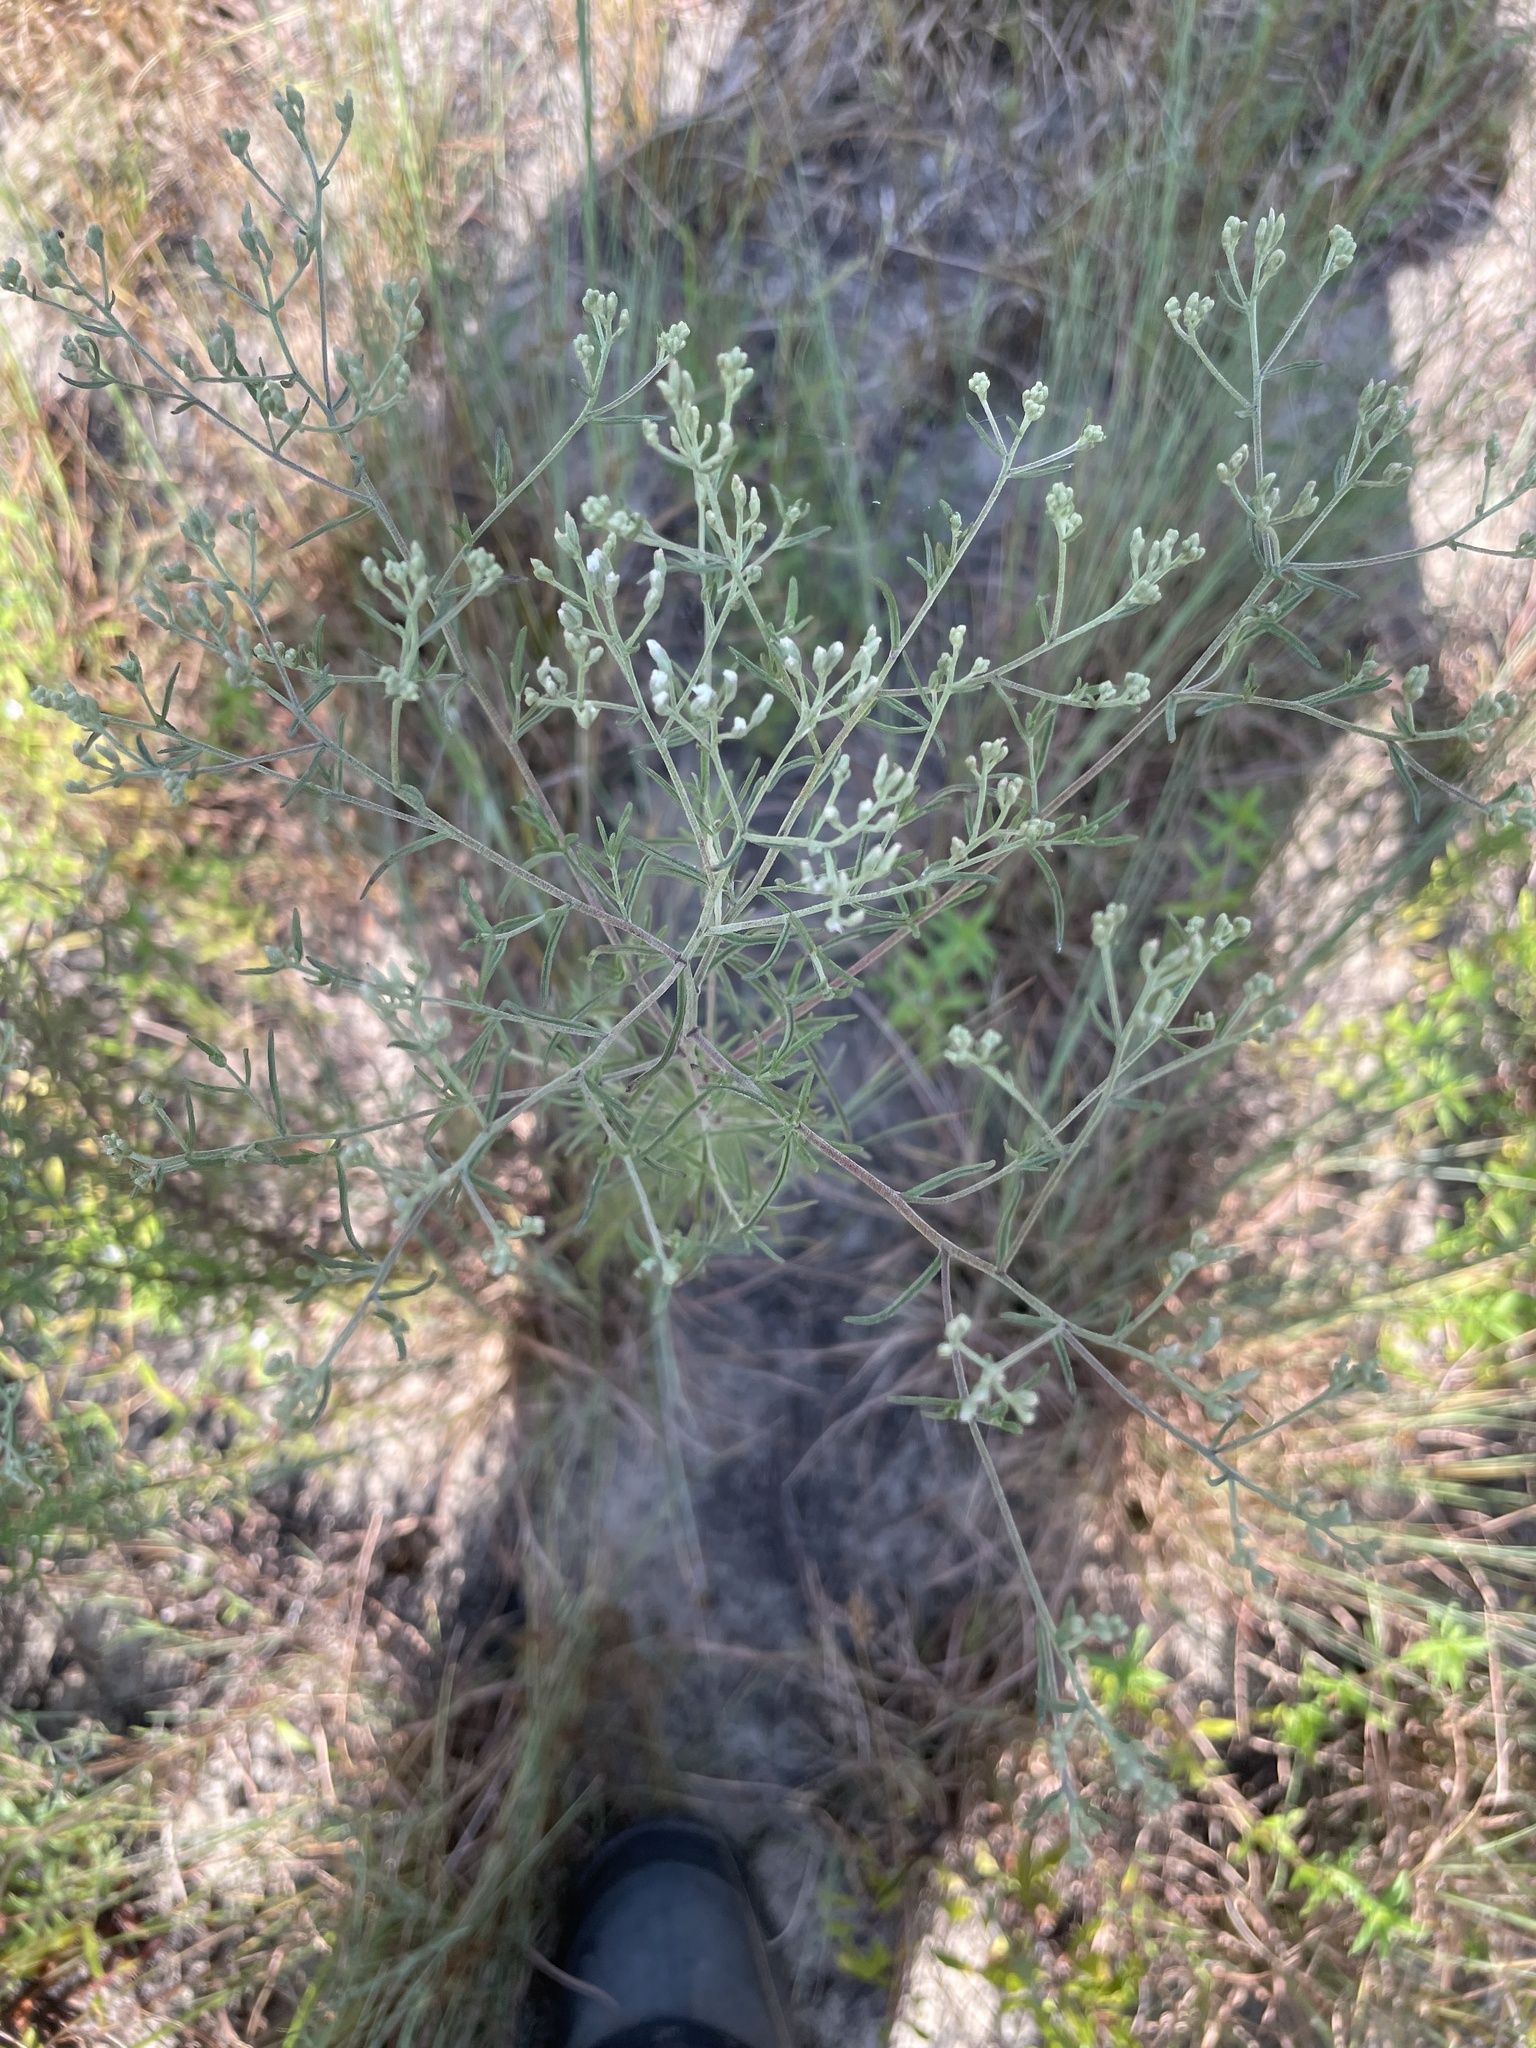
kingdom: Plantae
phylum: Tracheophyta
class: Magnoliopsida
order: Asterales
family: Asteraceae
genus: Eupatorium
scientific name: Eupatorium hyssopifolium
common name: Hyssop-leaf thoroughwort
